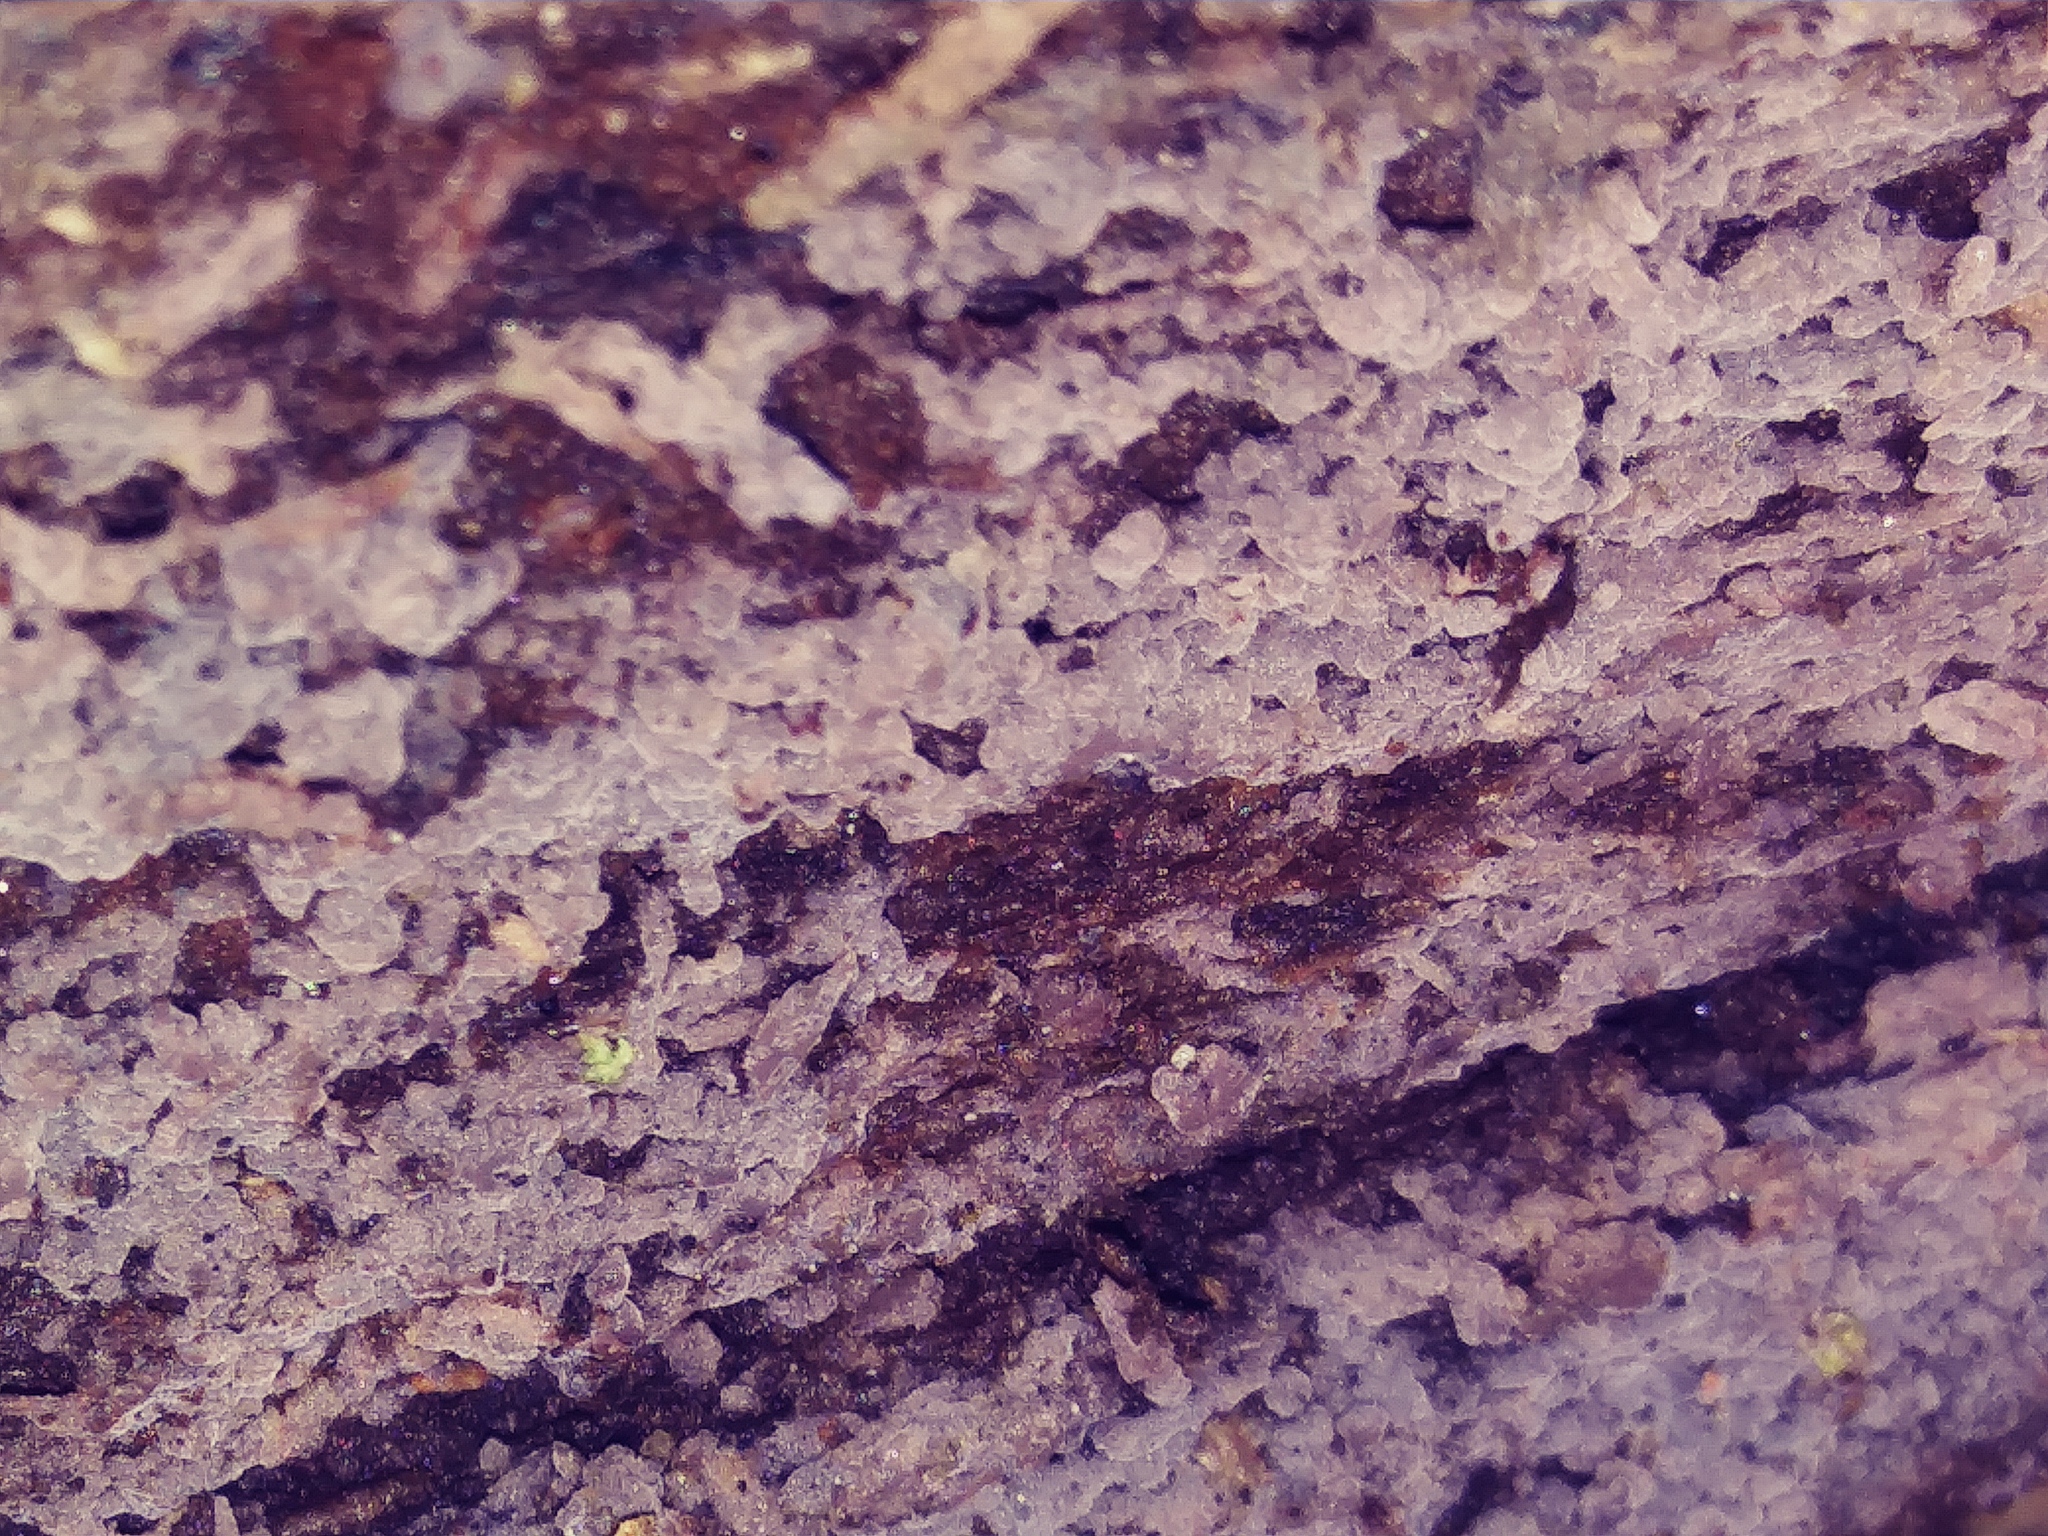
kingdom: Animalia
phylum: Arthropoda
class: Insecta
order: Diptera
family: Limoniidae
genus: Erioptera
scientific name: Erioptera caliptera
